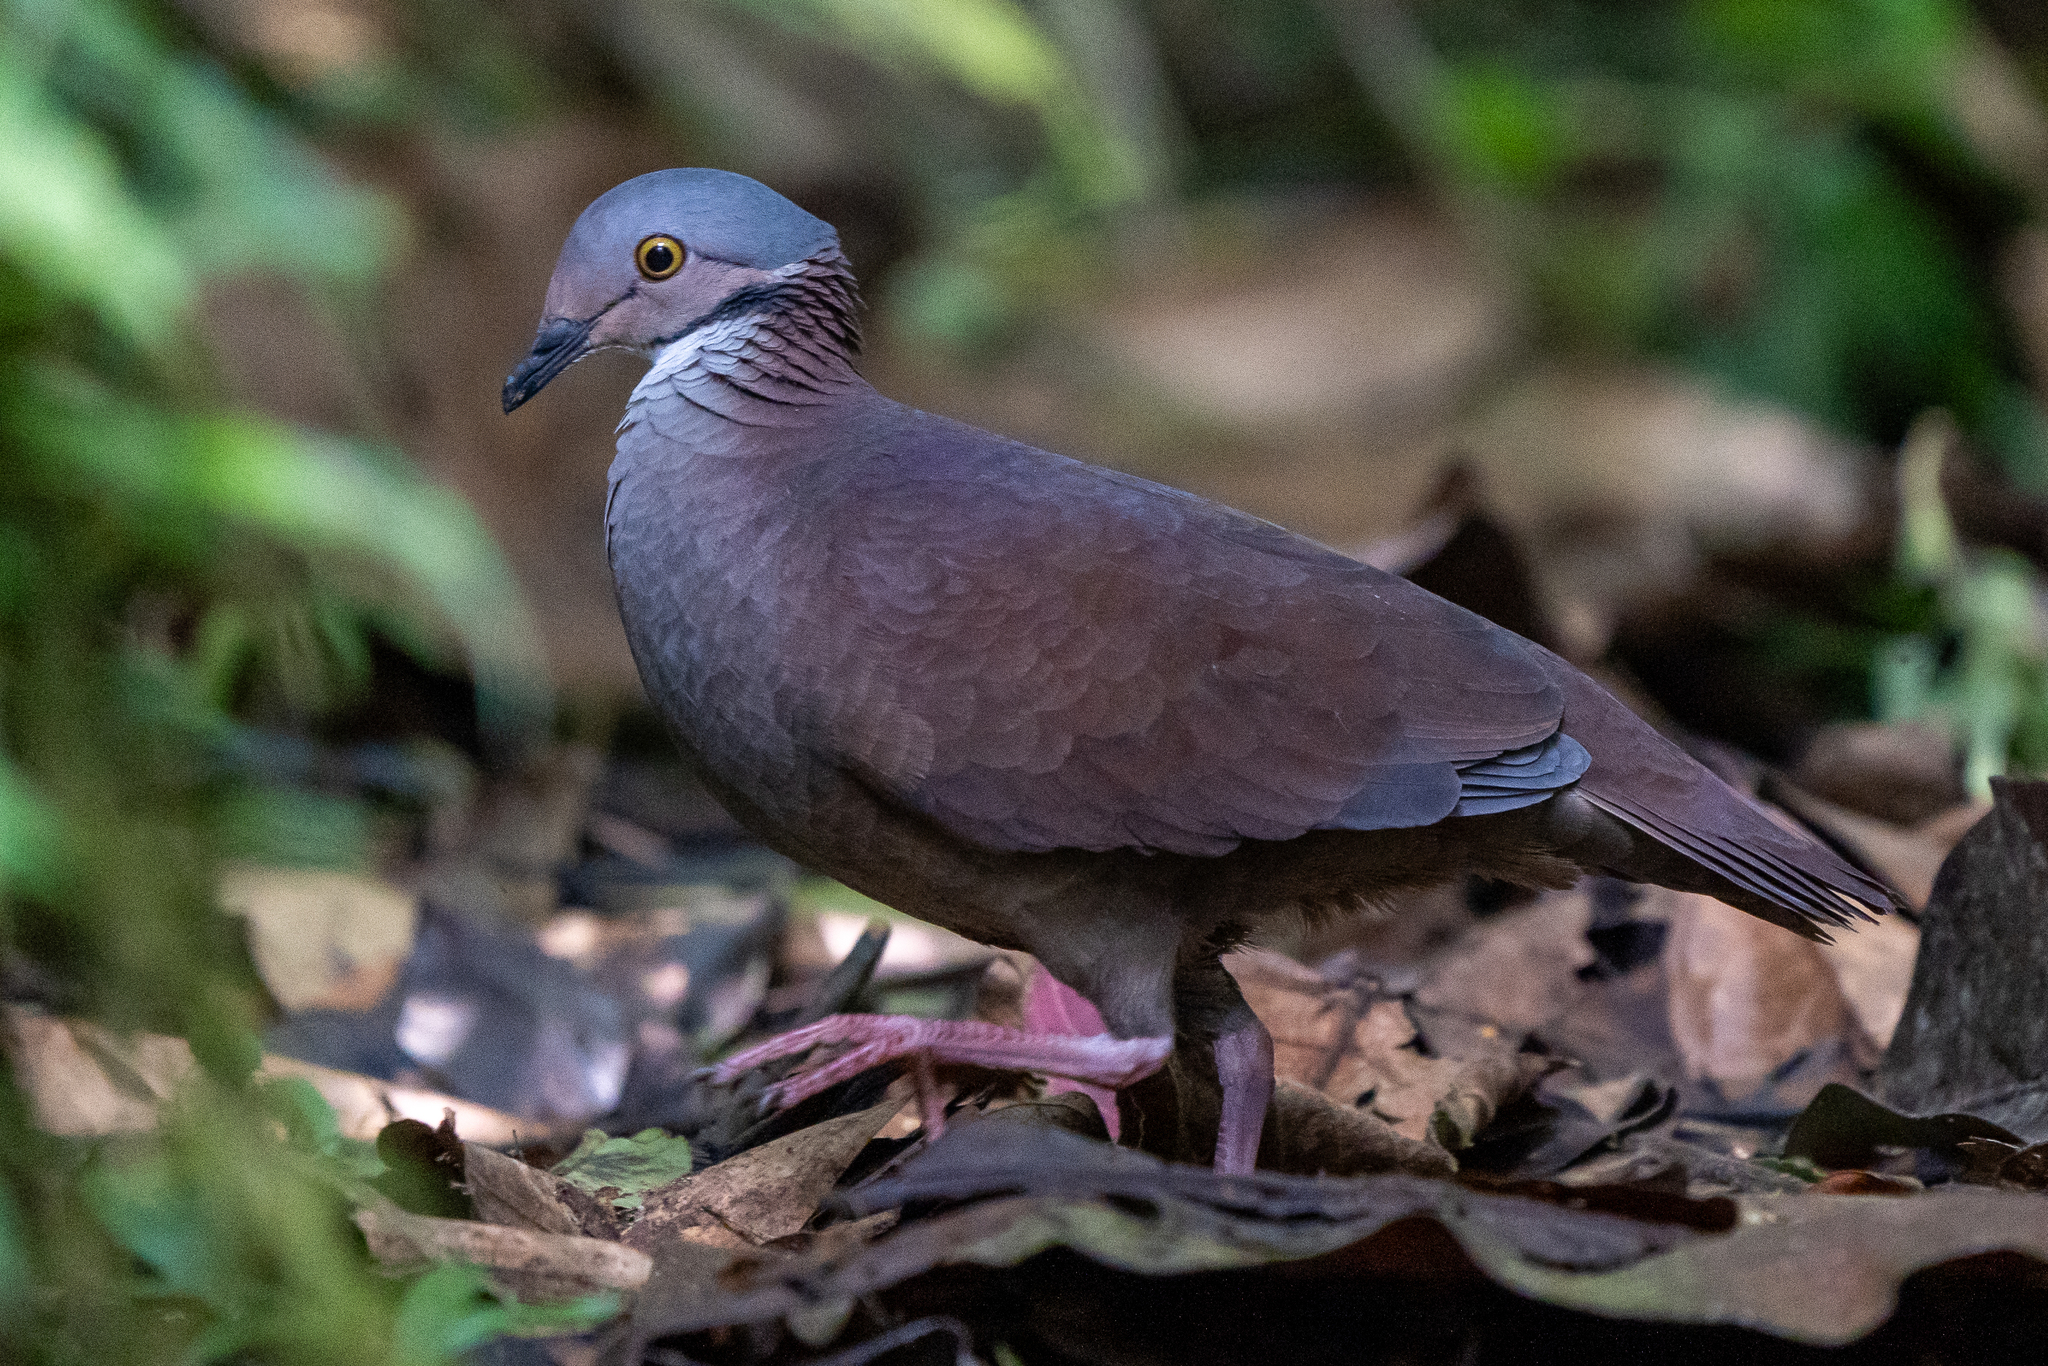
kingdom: Animalia
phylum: Chordata
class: Aves
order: Columbiformes
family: Columbidae
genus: Zentrygon
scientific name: Zentrygon frenata
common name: White-throated quail-dove
